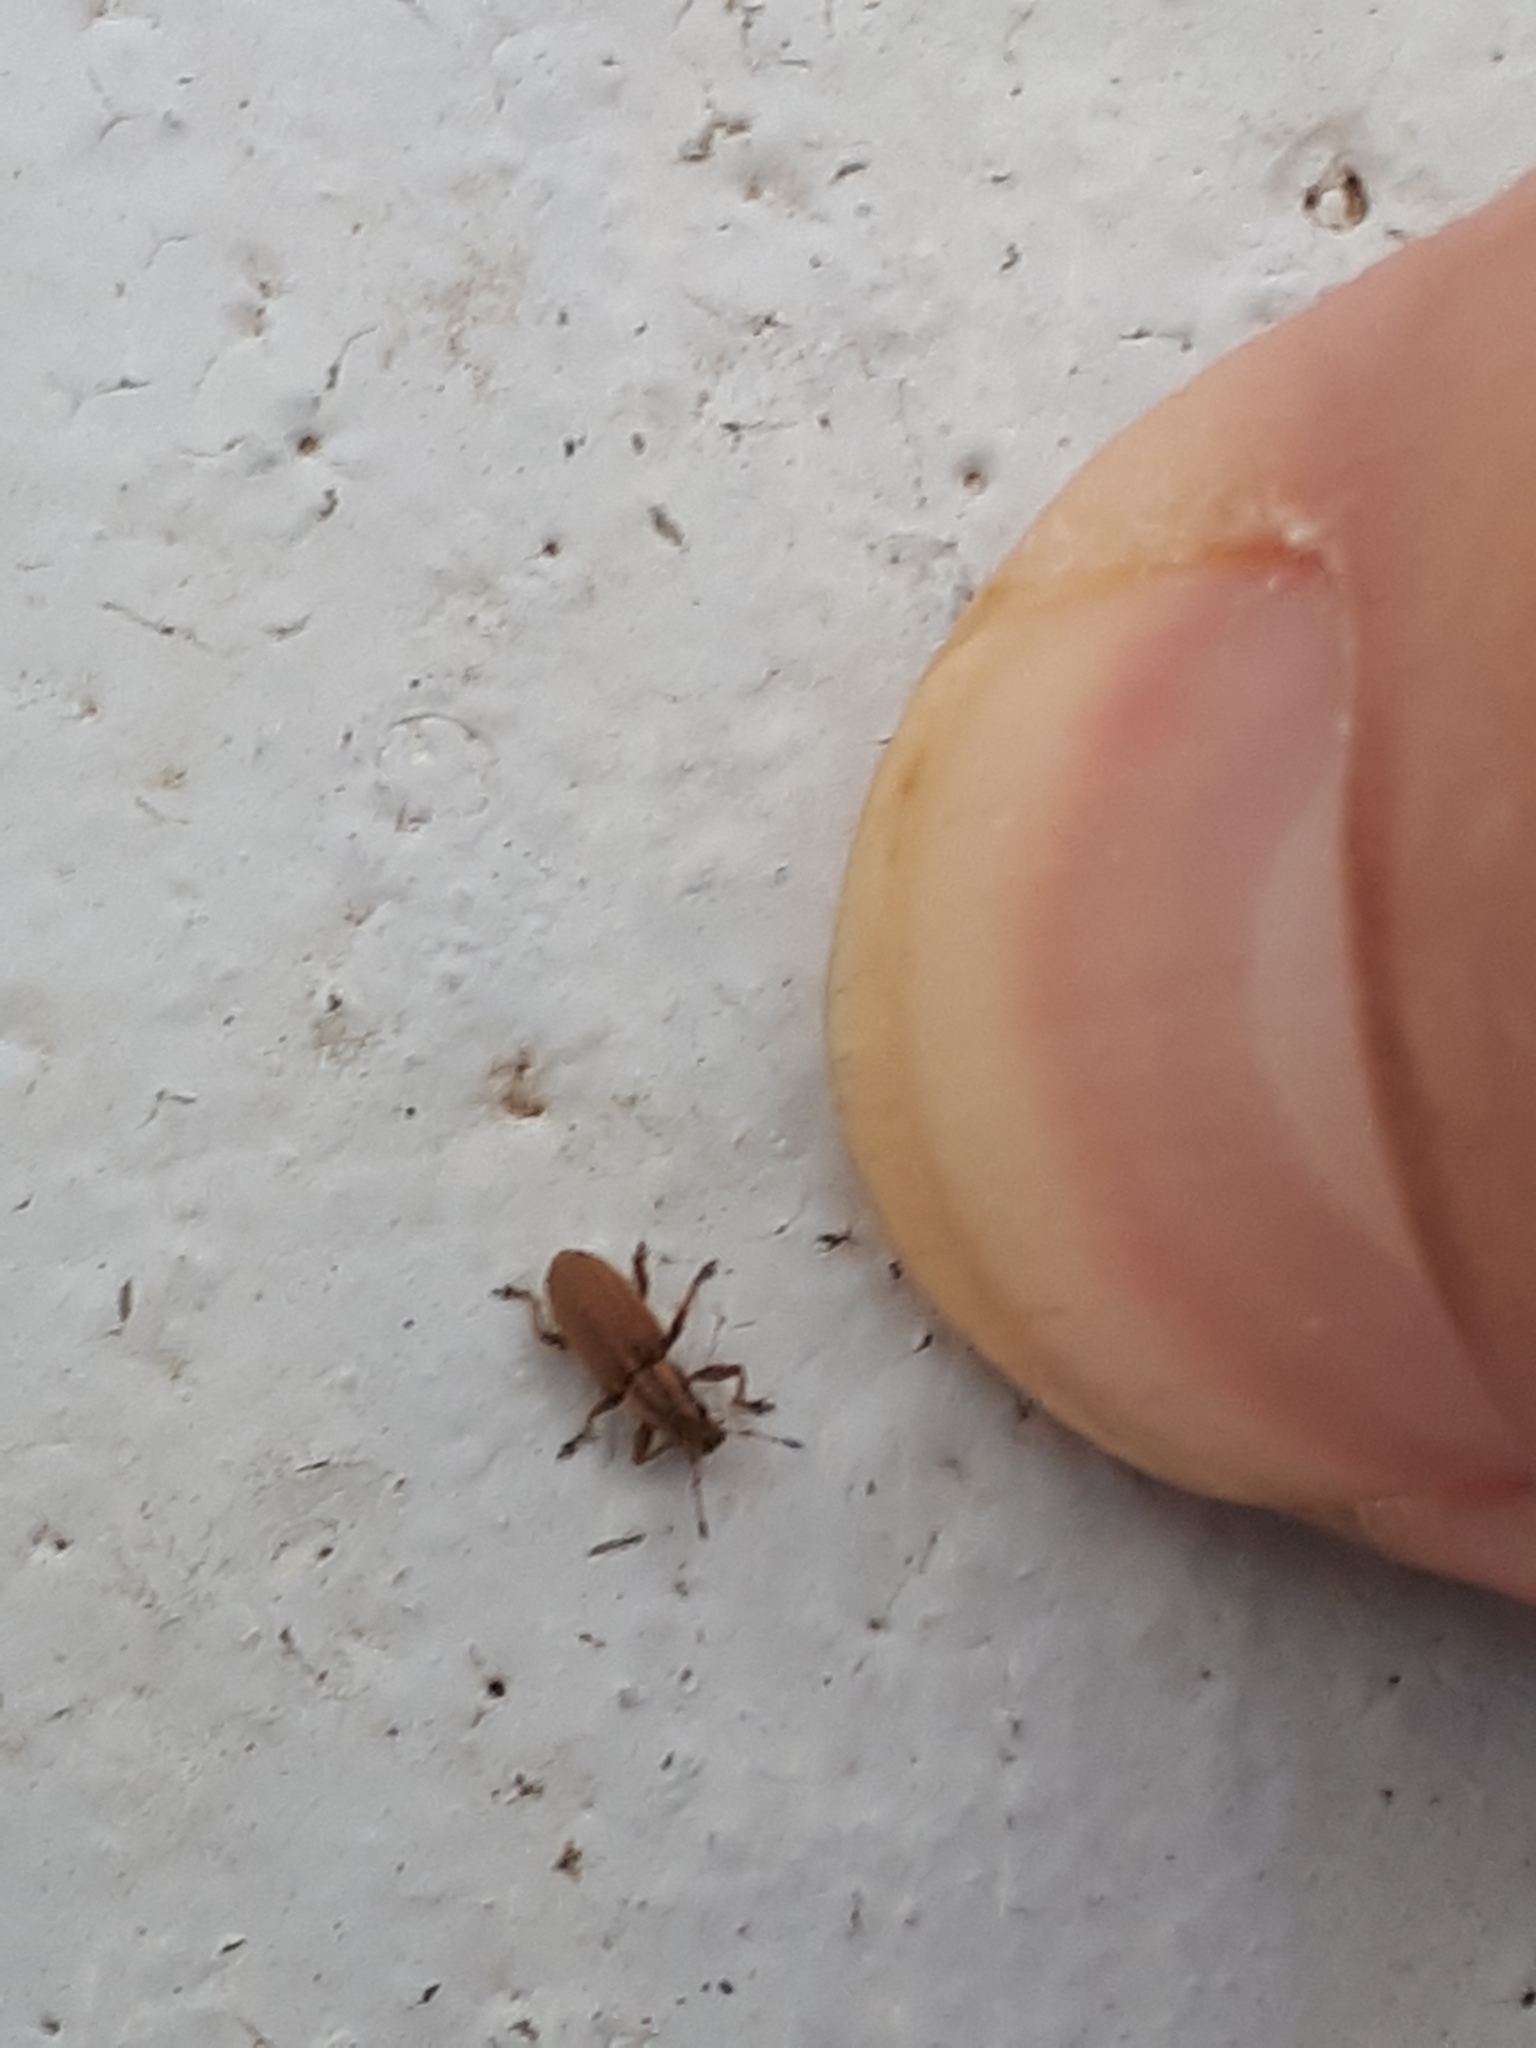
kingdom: Animalia
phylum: Arthropoda
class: Insecta
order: Coleoptera
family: Curculionidae
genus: Sitona
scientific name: Sitona lineatus
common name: Weevil
